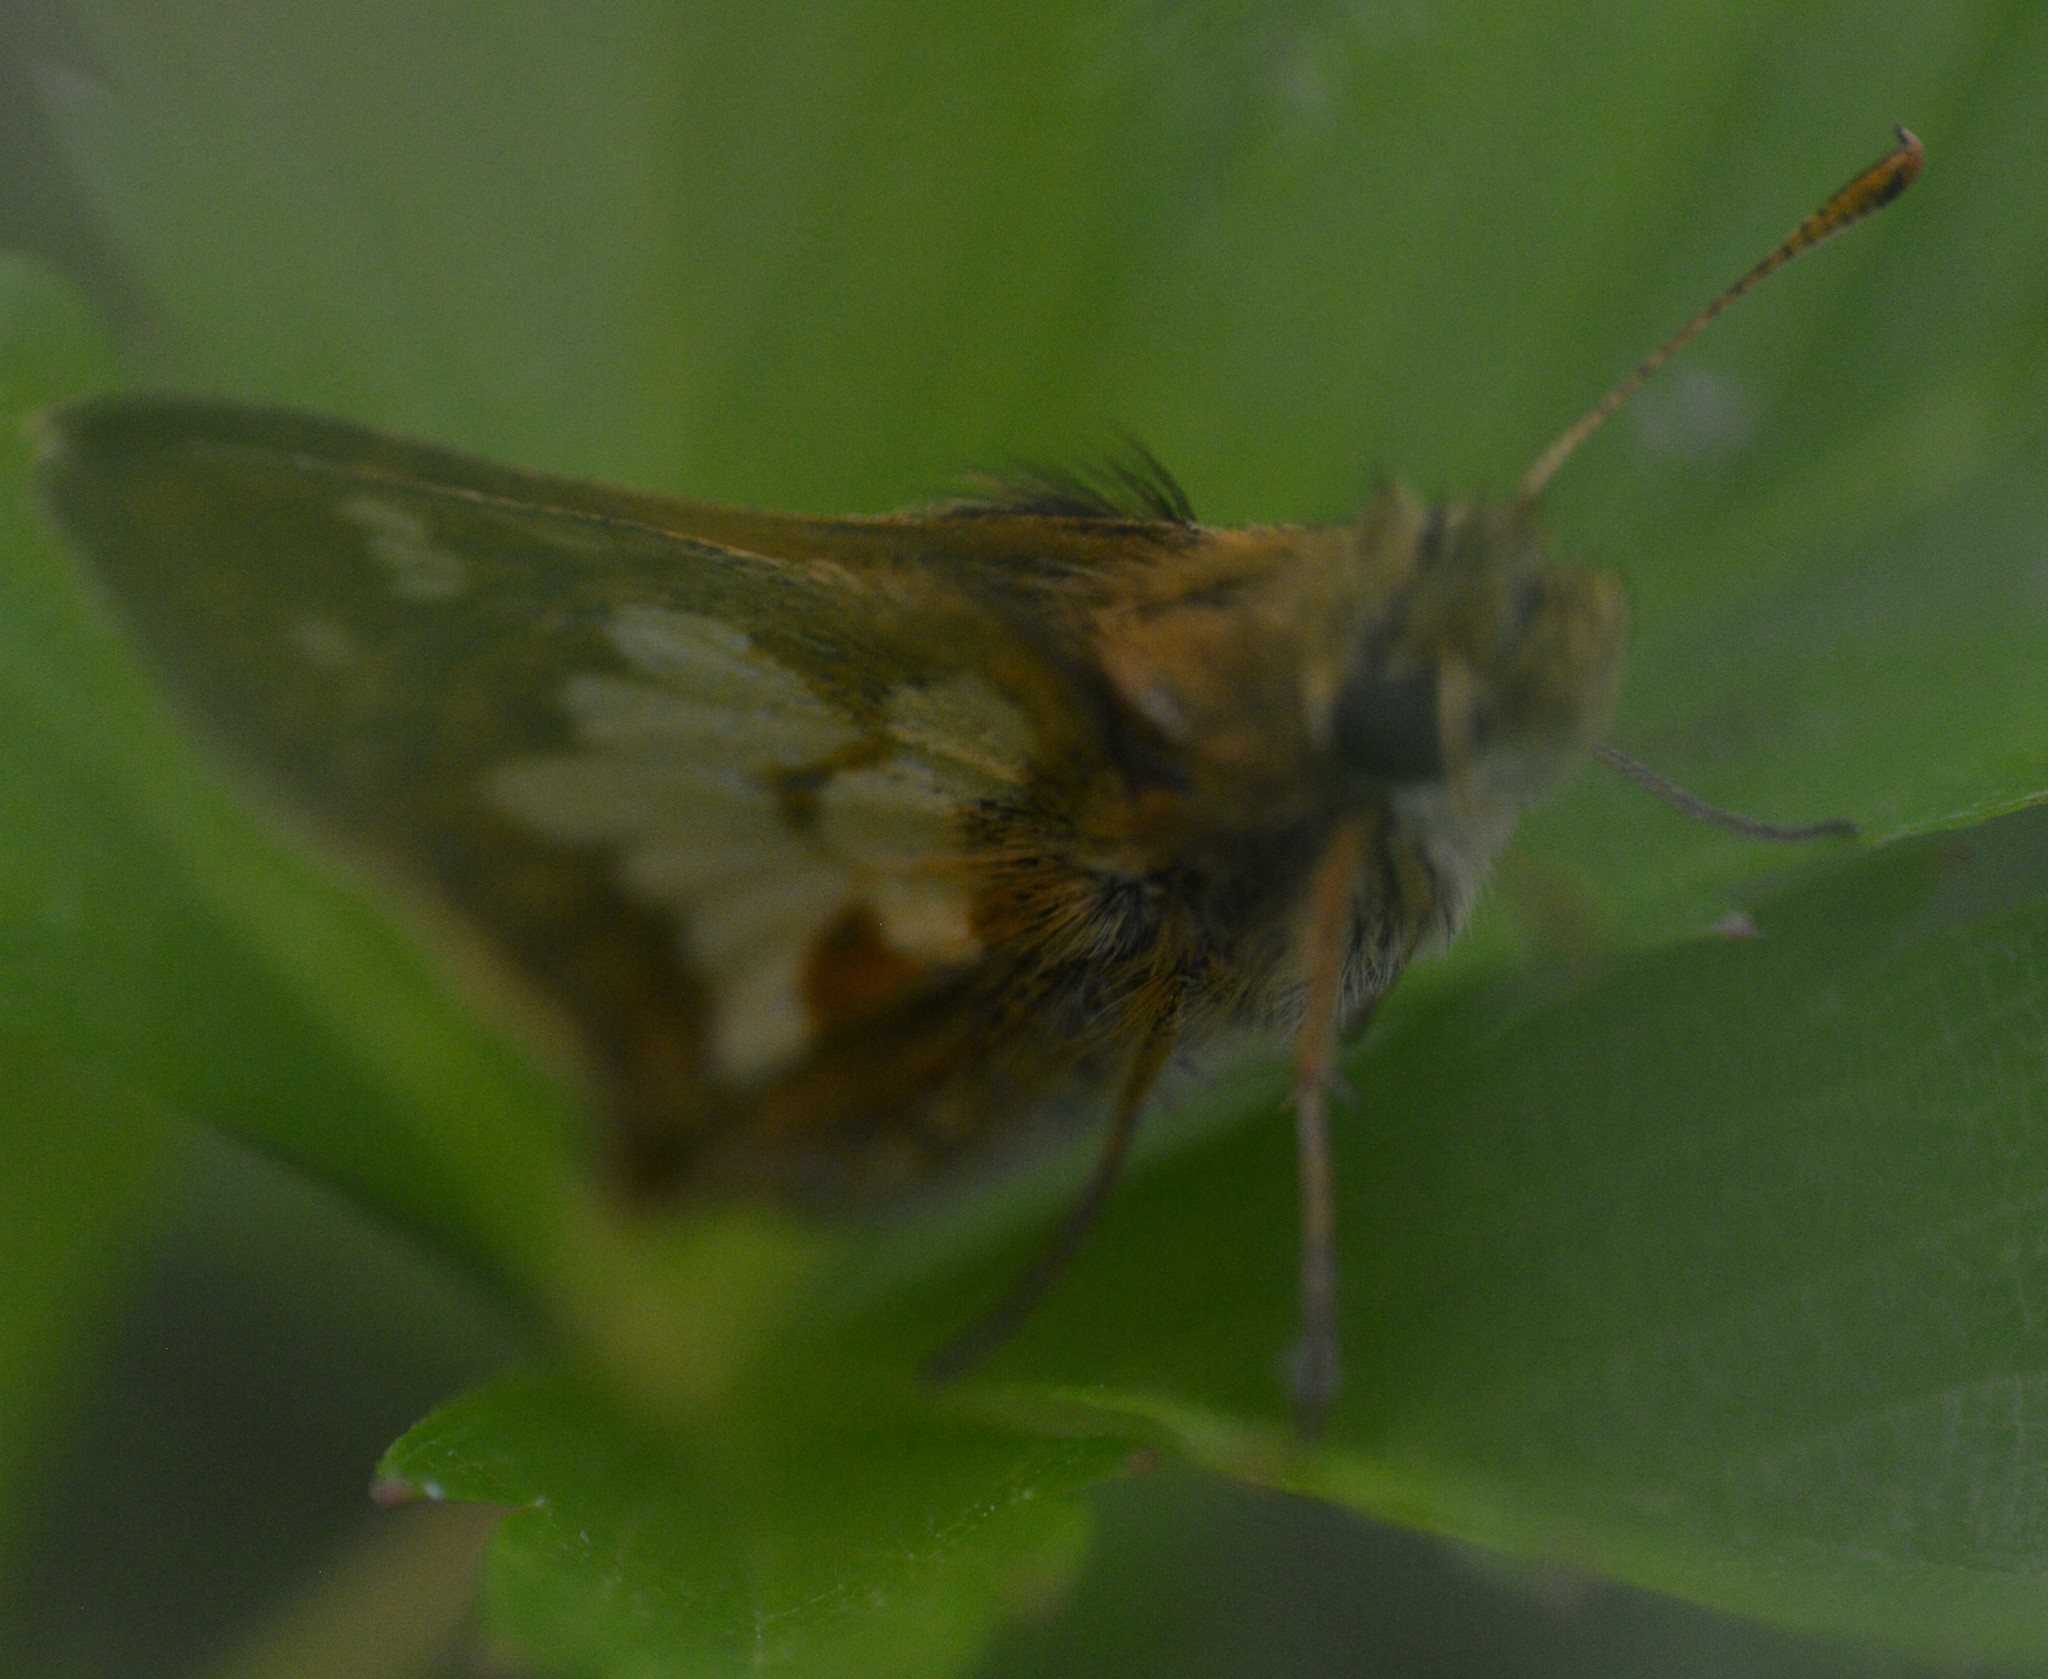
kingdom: Animalia
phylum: Arthropoda
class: Insecta
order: Lepidoptera
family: Hesperiidae
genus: Polites
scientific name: Polites coras
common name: Peck's skipper
